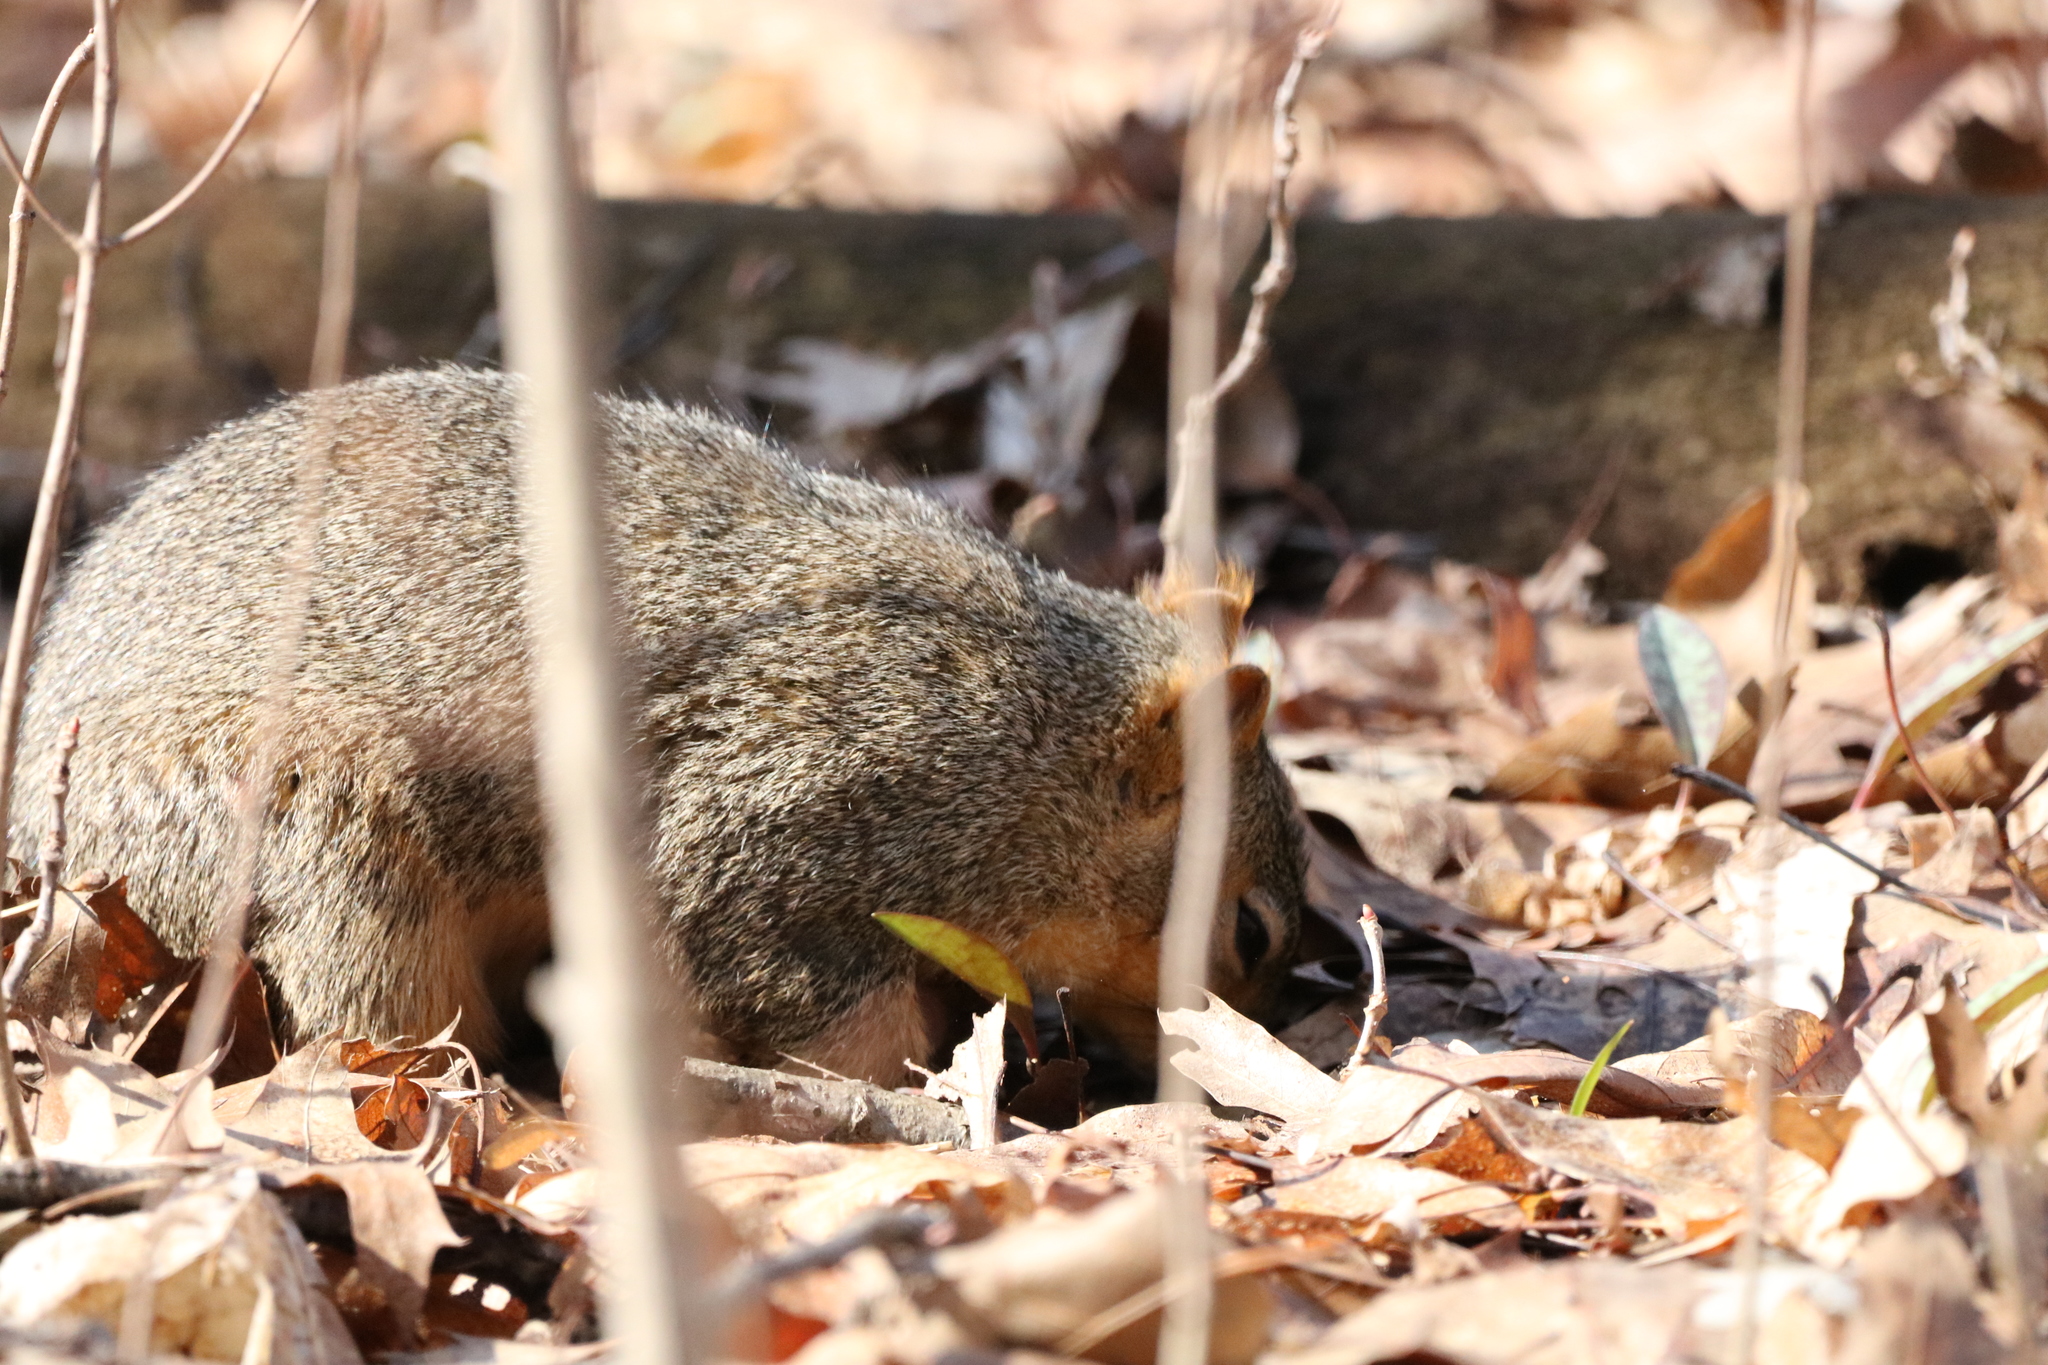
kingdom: Animalia
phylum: Chordata
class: Mammalia
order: Rodentia
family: Sciuridae
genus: Sciurus
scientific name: Sciurus niger
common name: Fox squirrel
